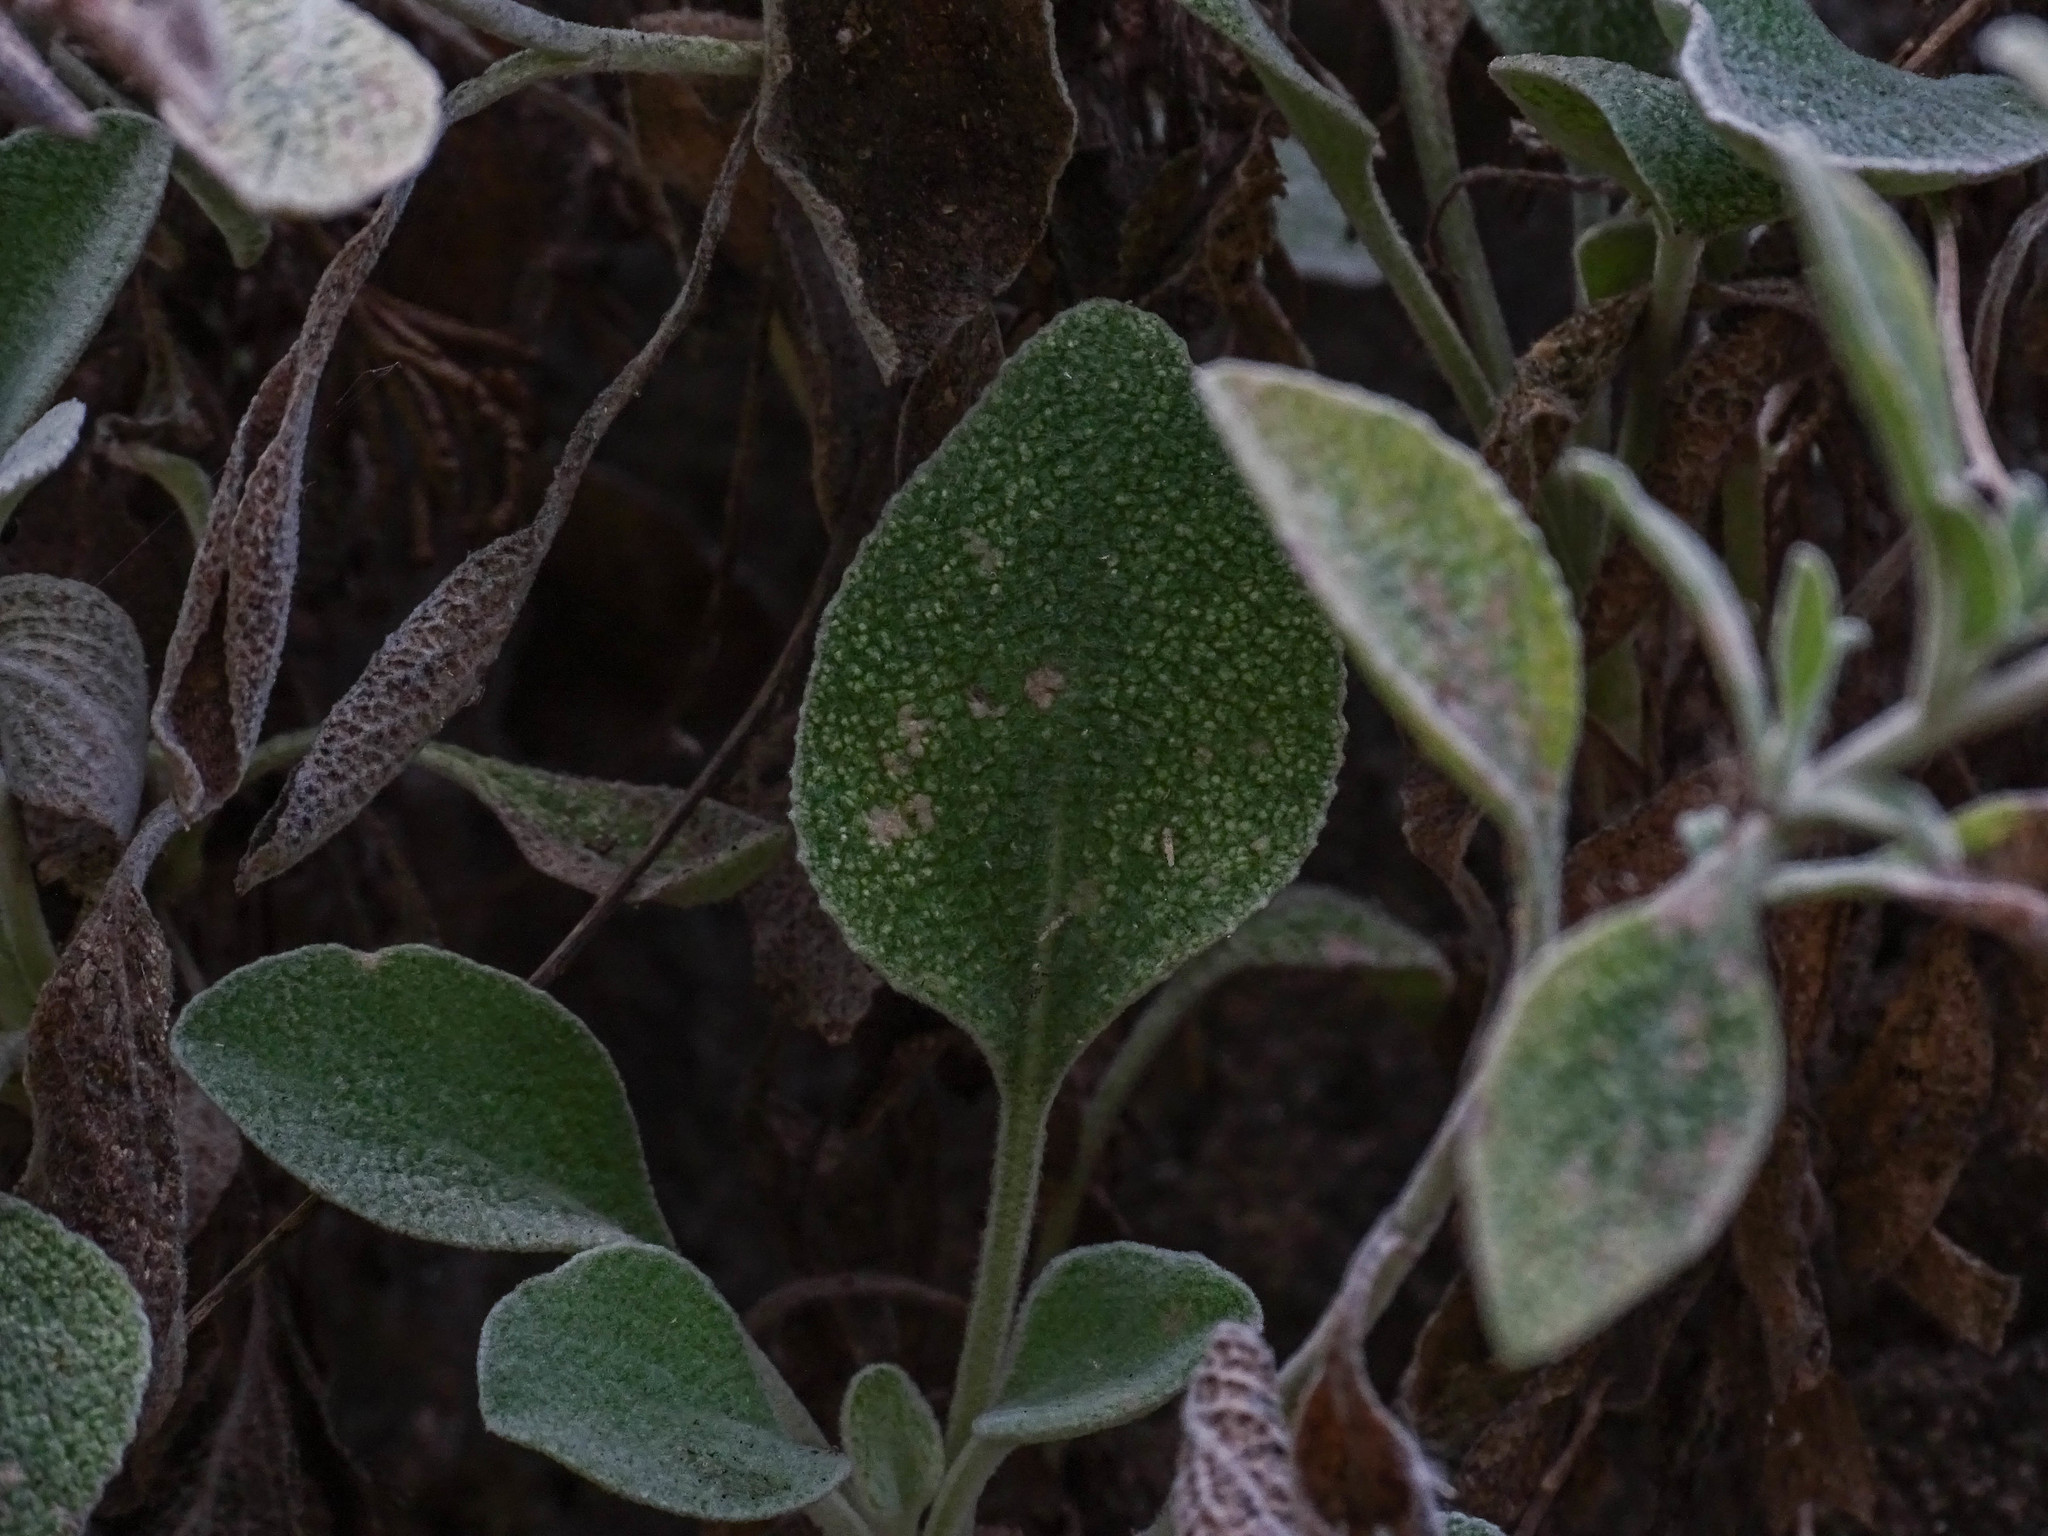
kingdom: Plantae
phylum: Tracheophyta
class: Magnoliopsida
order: Asterales
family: Asteraceae
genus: Pentanema
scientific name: Pentanema verbascifolium
